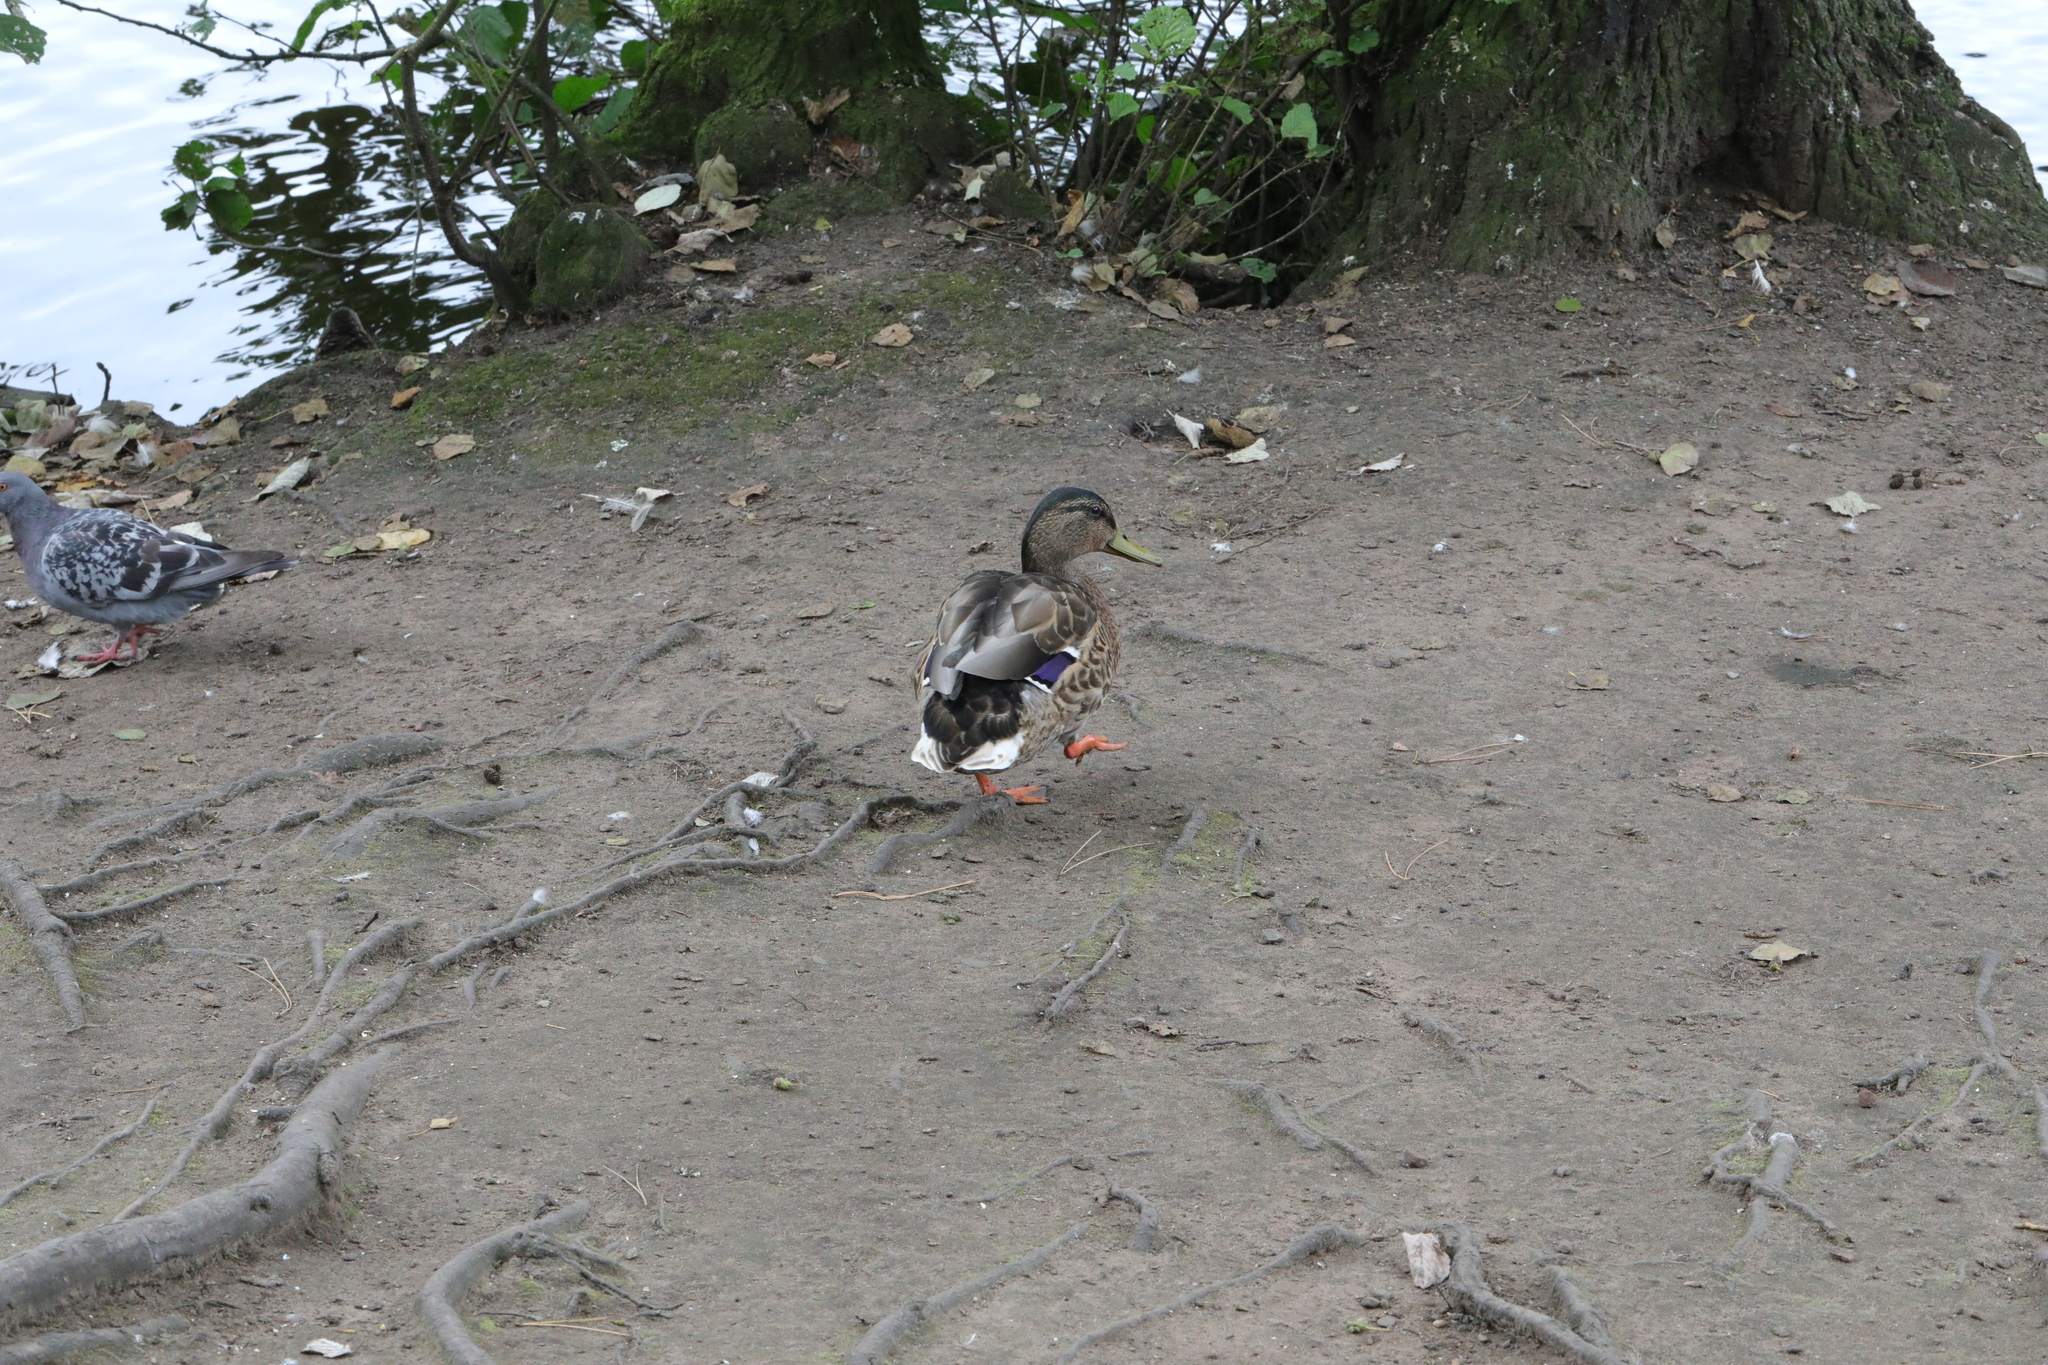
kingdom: Animalia
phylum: Chordata
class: Aves
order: Anseriformes
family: Anatidae
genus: Anas
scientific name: Anas platyrhynchos
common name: Mallard
